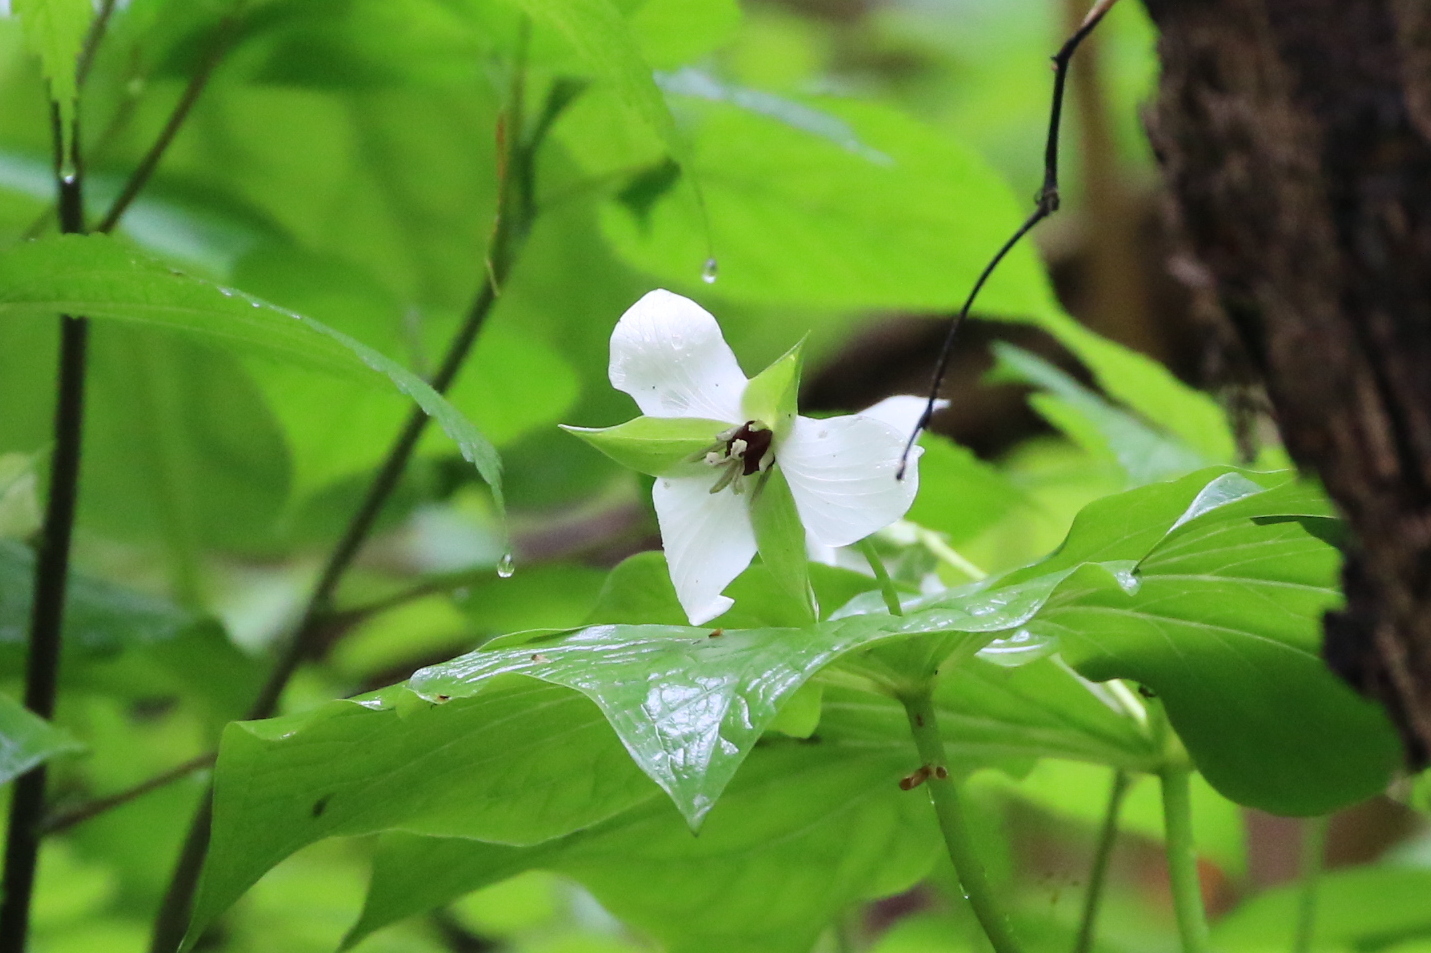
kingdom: Plantae
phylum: Tracheophyta
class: Liliopsida
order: Liliales
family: Melanthiaceae
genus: Trillium
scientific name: Trillium erectum
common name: Purple trillium
